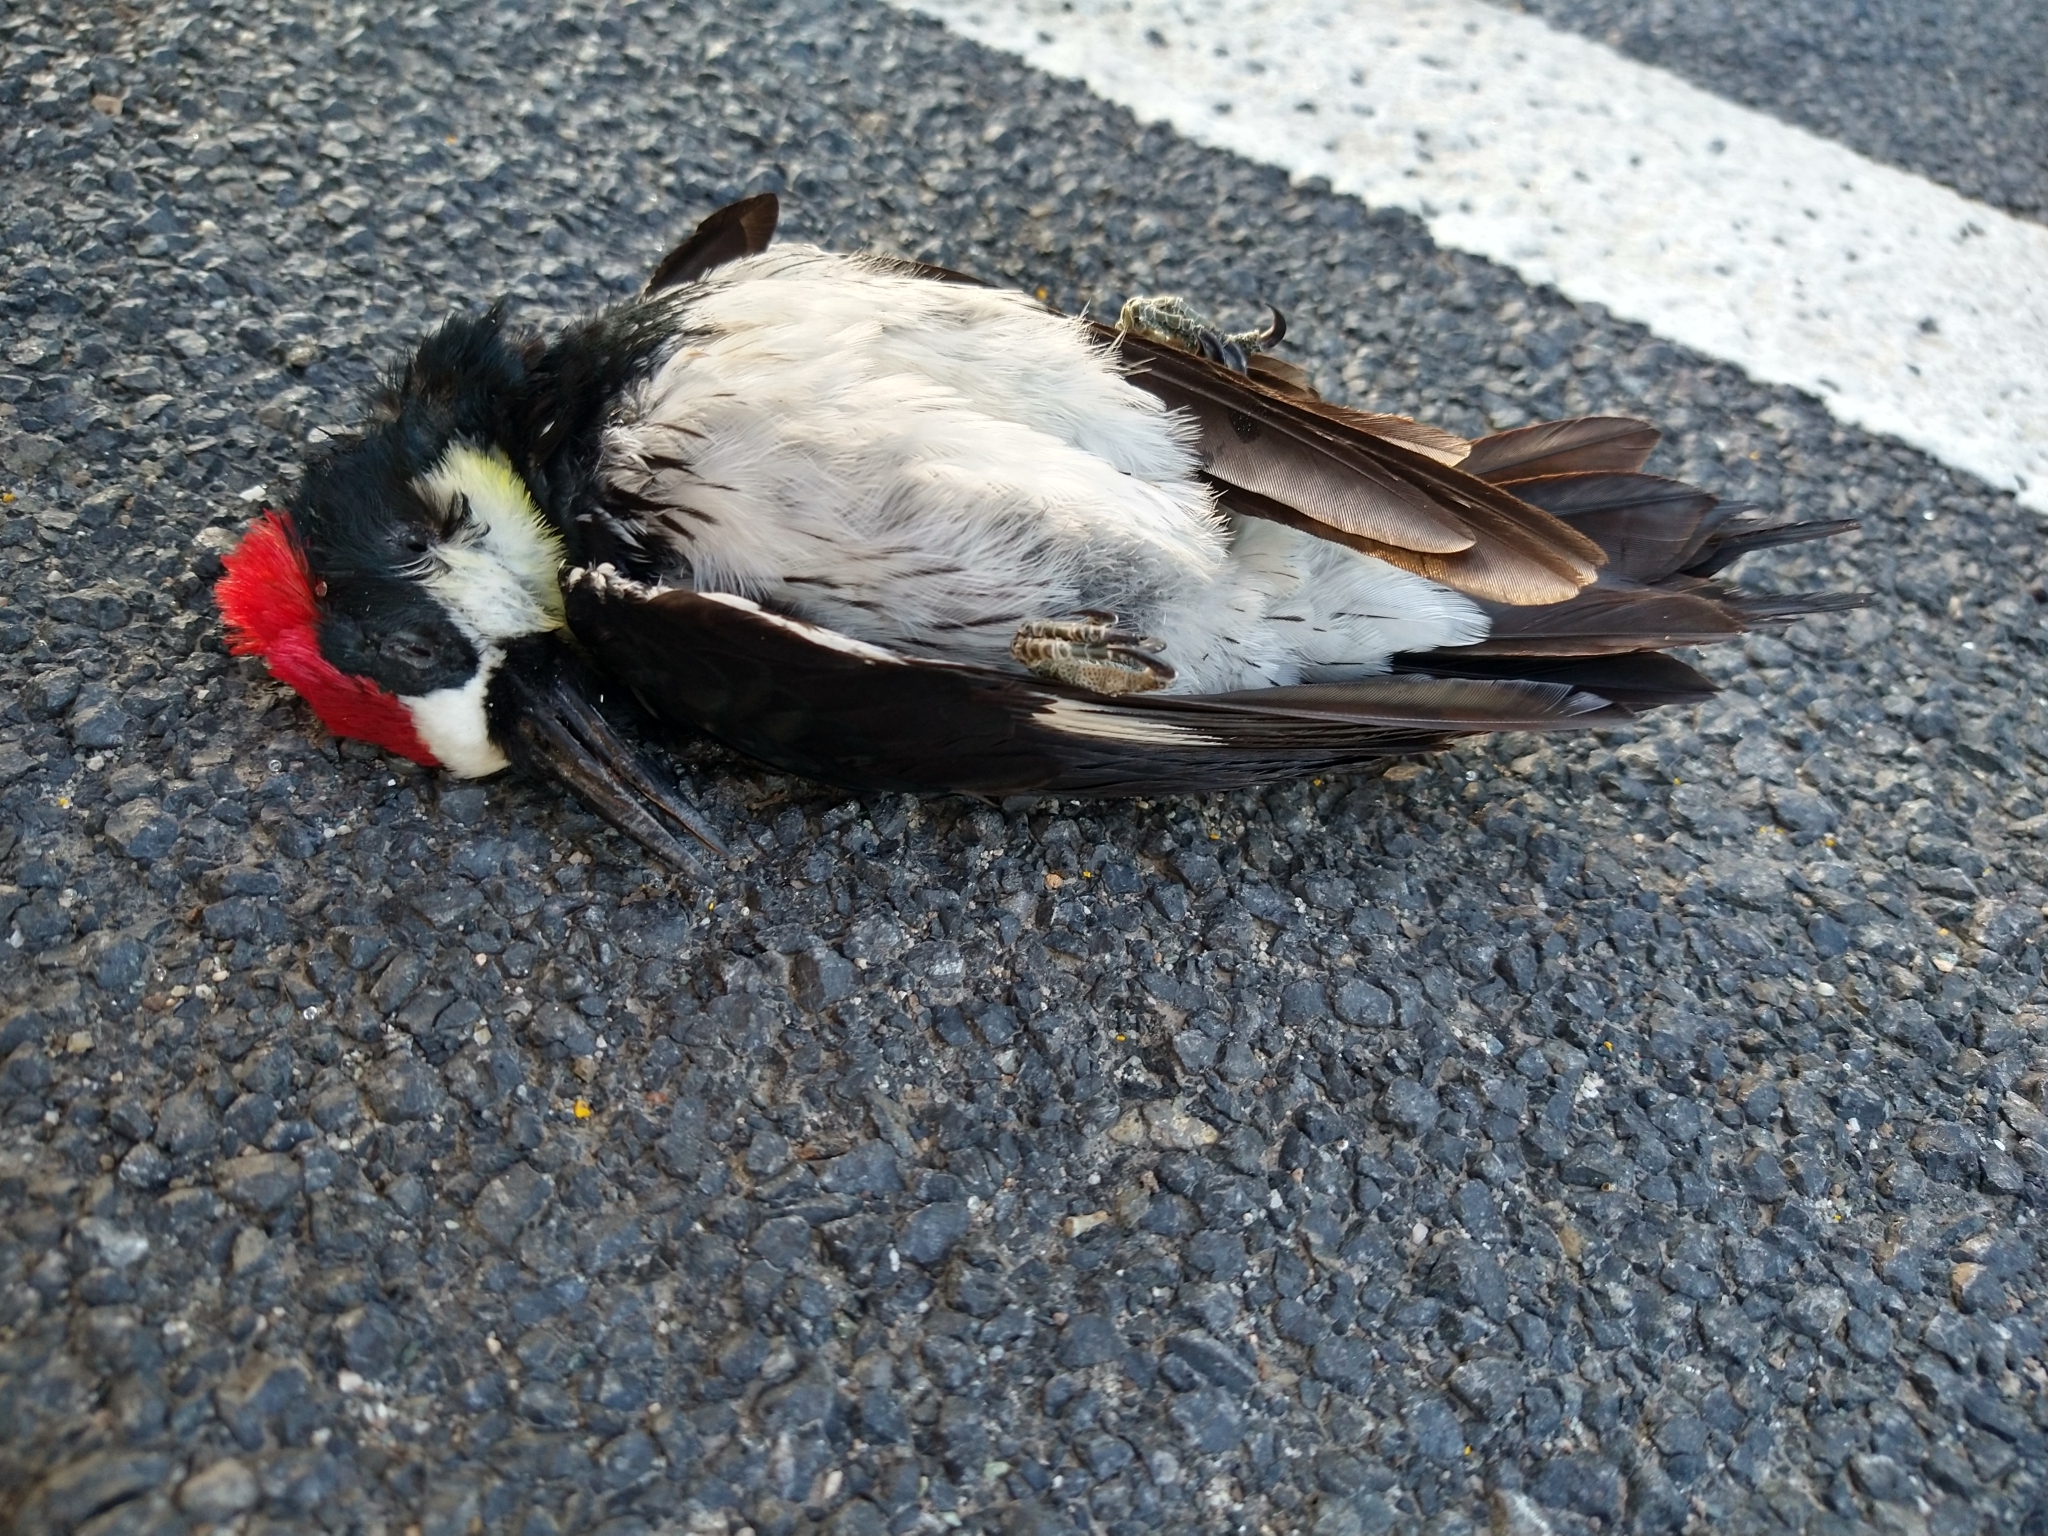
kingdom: Animalia
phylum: Chordata
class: Aves
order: Piciformes
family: Picidae
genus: Melanerpes
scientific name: Melanerpes formicivorus
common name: Acorn woodpecker
